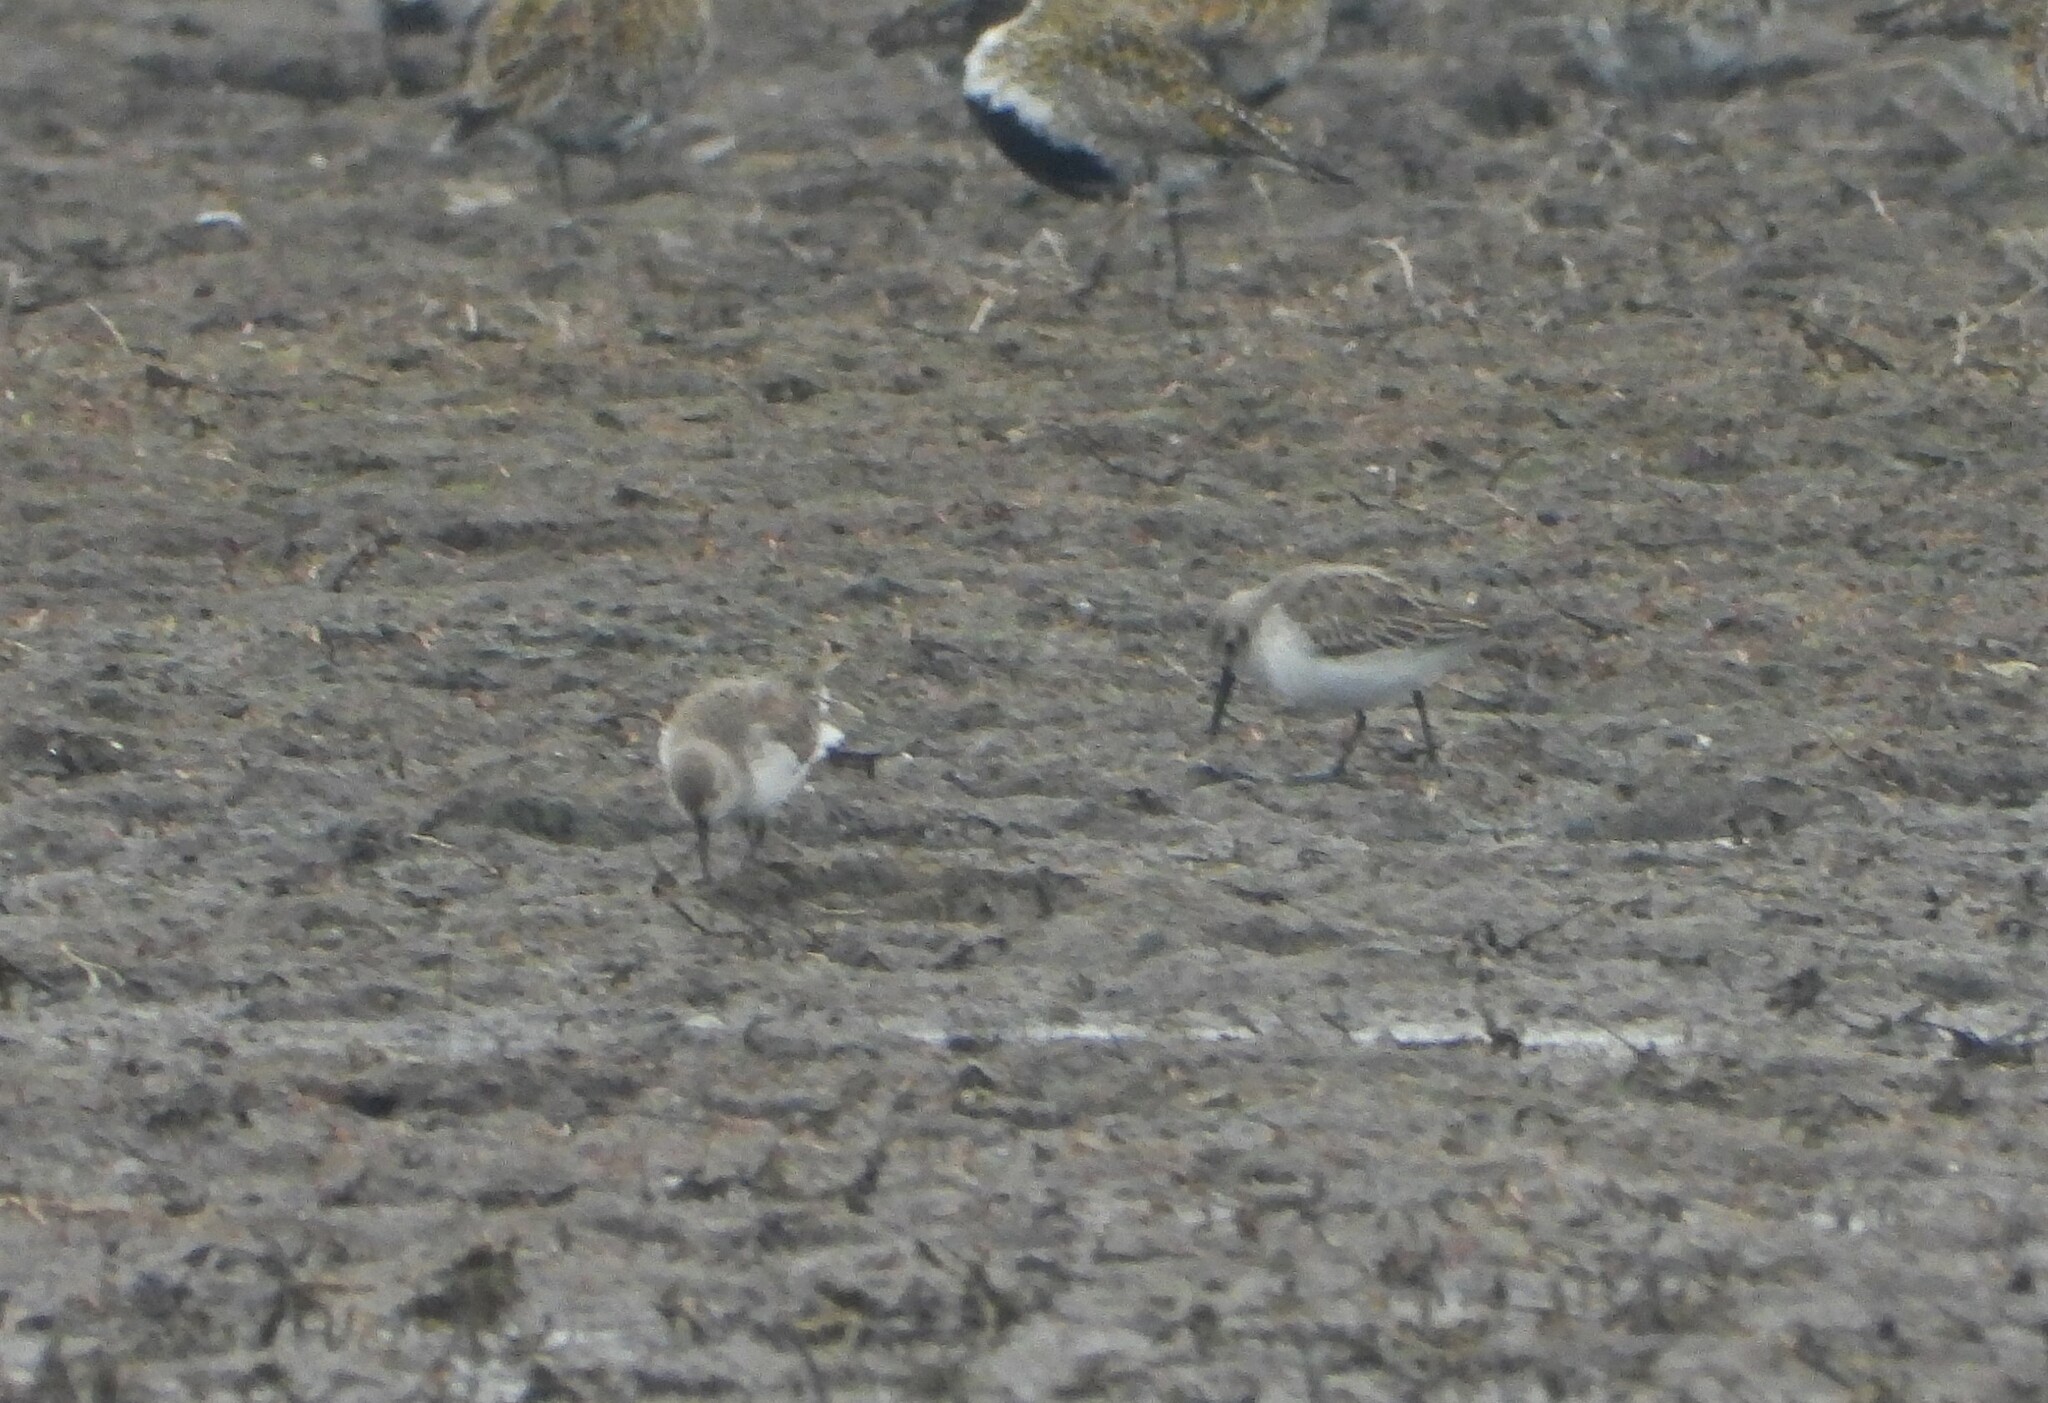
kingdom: Animalia
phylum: Chordata
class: Aves
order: Charadriiformes
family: Scolopacidae
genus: Calidris
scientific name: Calidris alpina
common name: Dunlin
